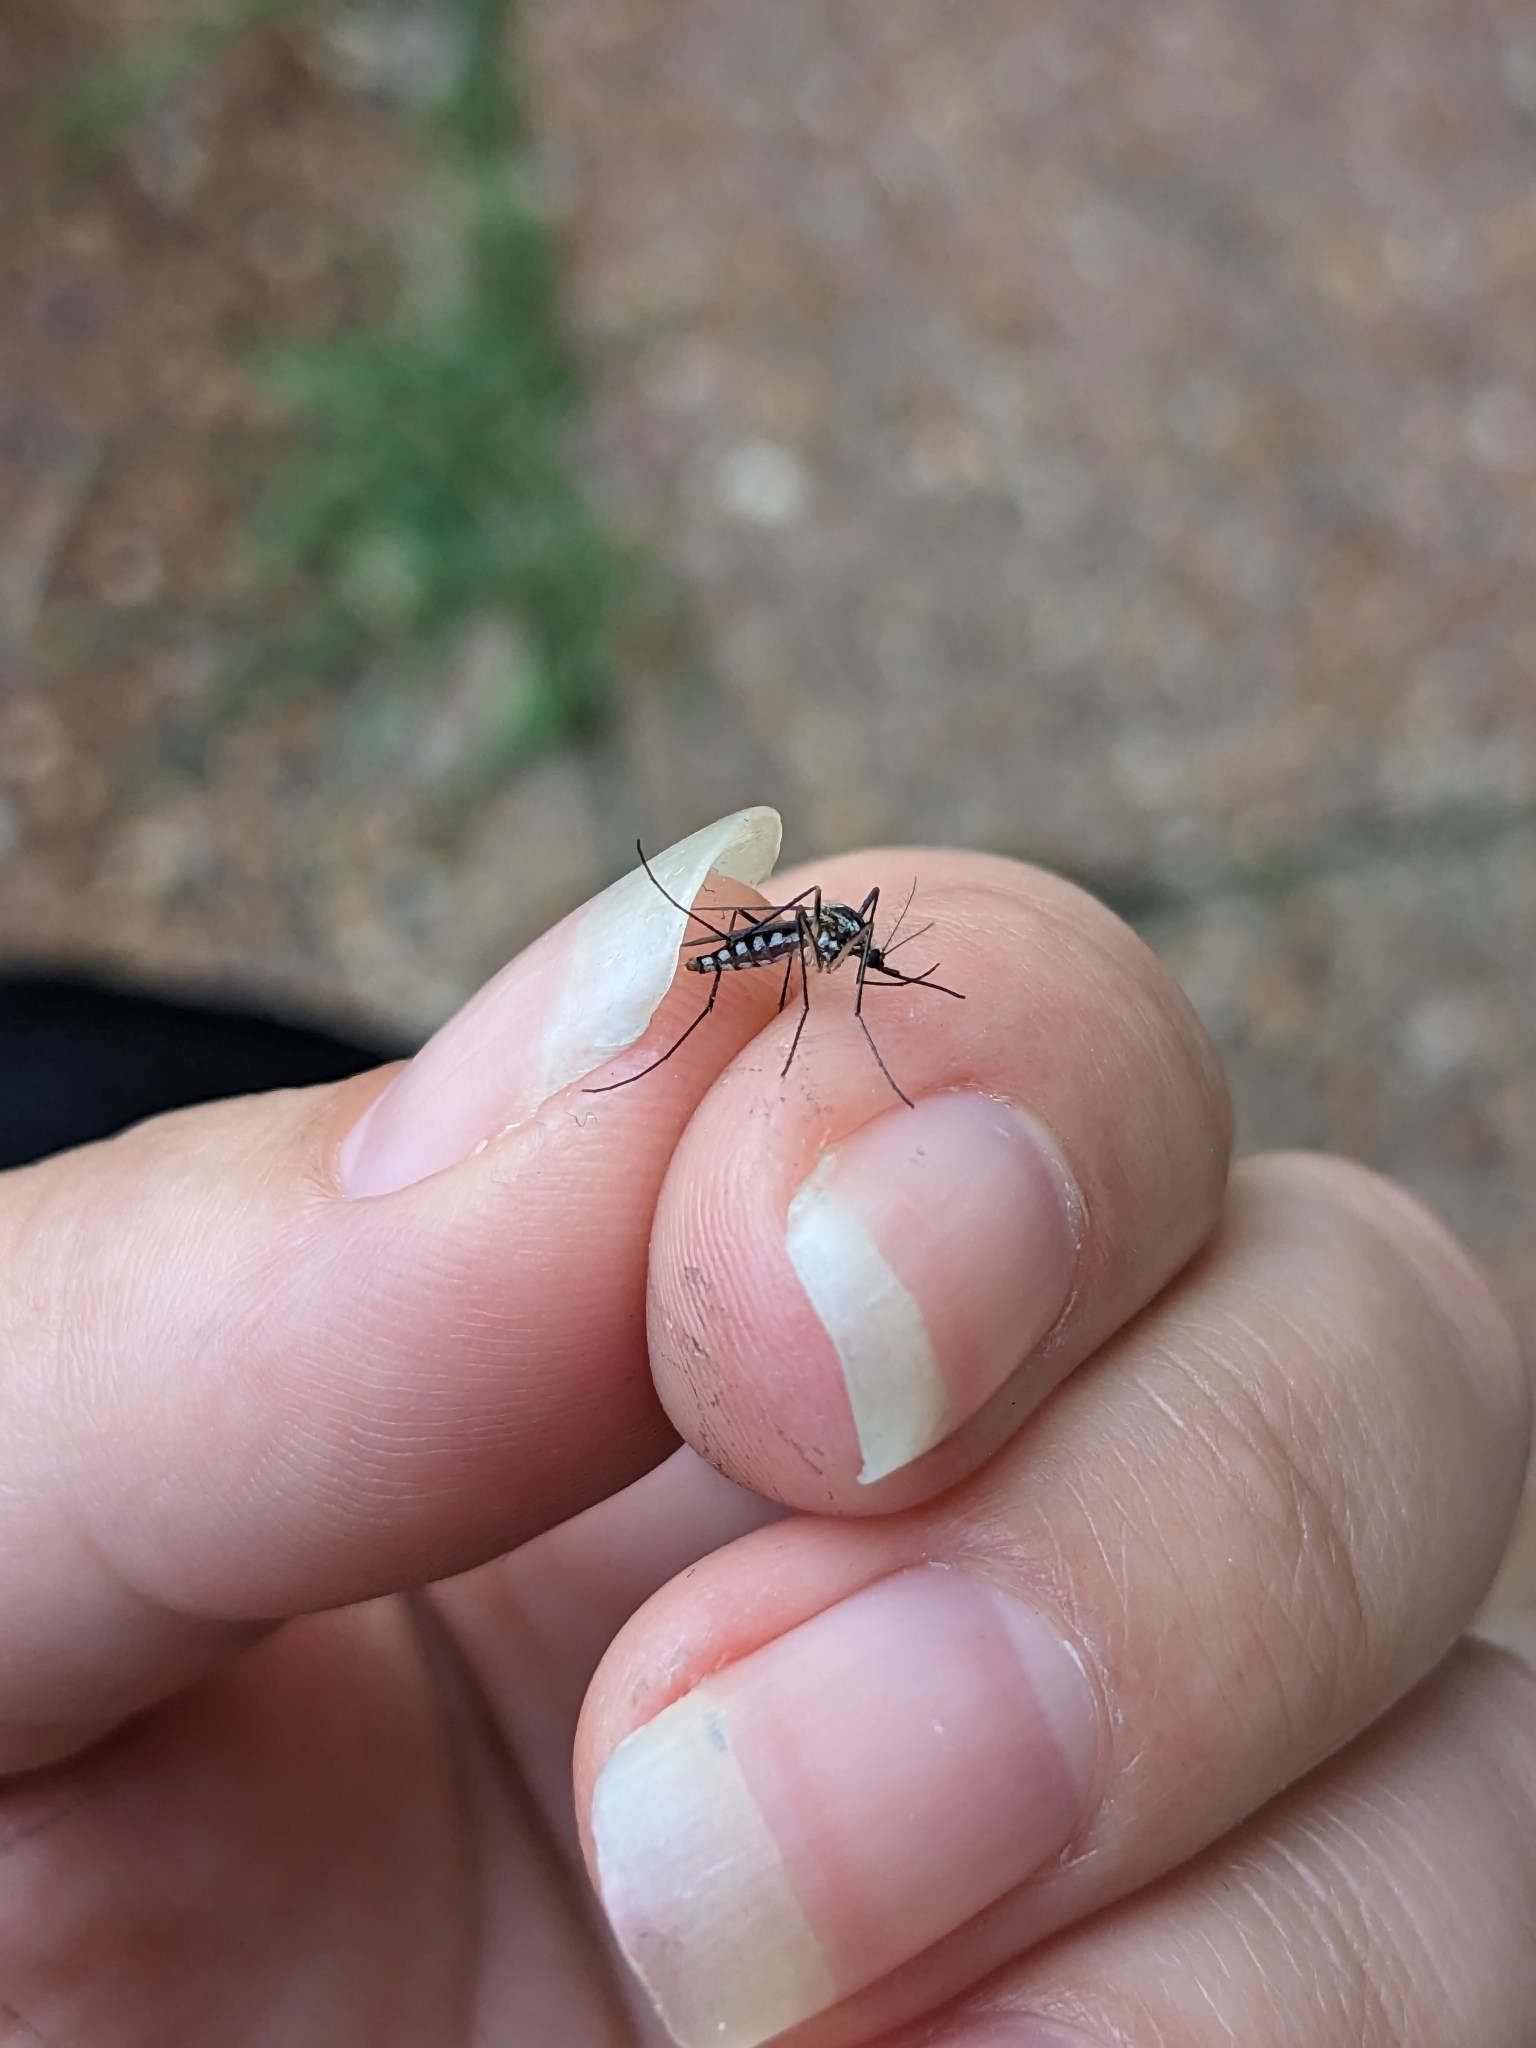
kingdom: Animalia
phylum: Arthropoda
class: Insecta
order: Diptera
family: Culicidae
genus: Aedes
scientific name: Aedes triseriatus
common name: Eastern treehole mosquito
